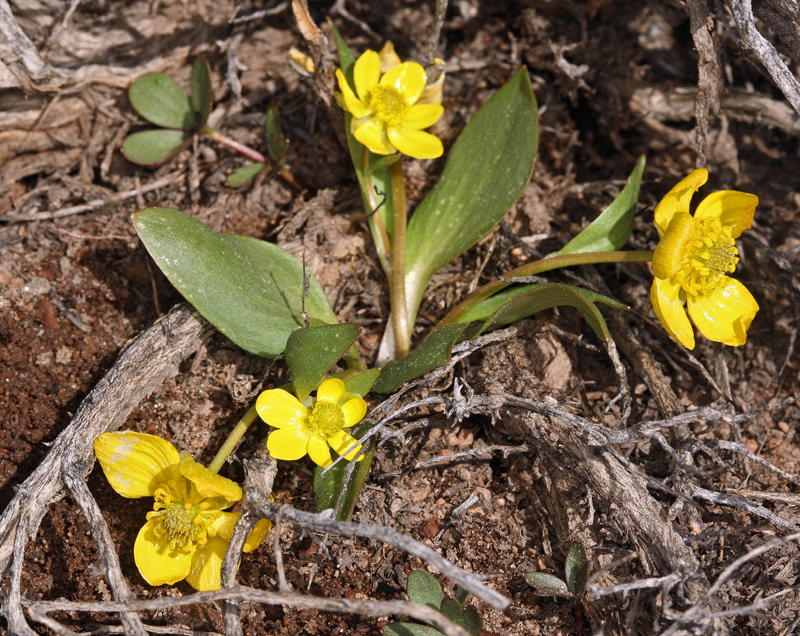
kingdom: Plantae
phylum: Tracheophyta
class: Magnoliopsida
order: Ranunculales
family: Ranunculaceae
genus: Ranunculus
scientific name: Ranunculus glaberrimus
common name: Sagebrush buttercup
